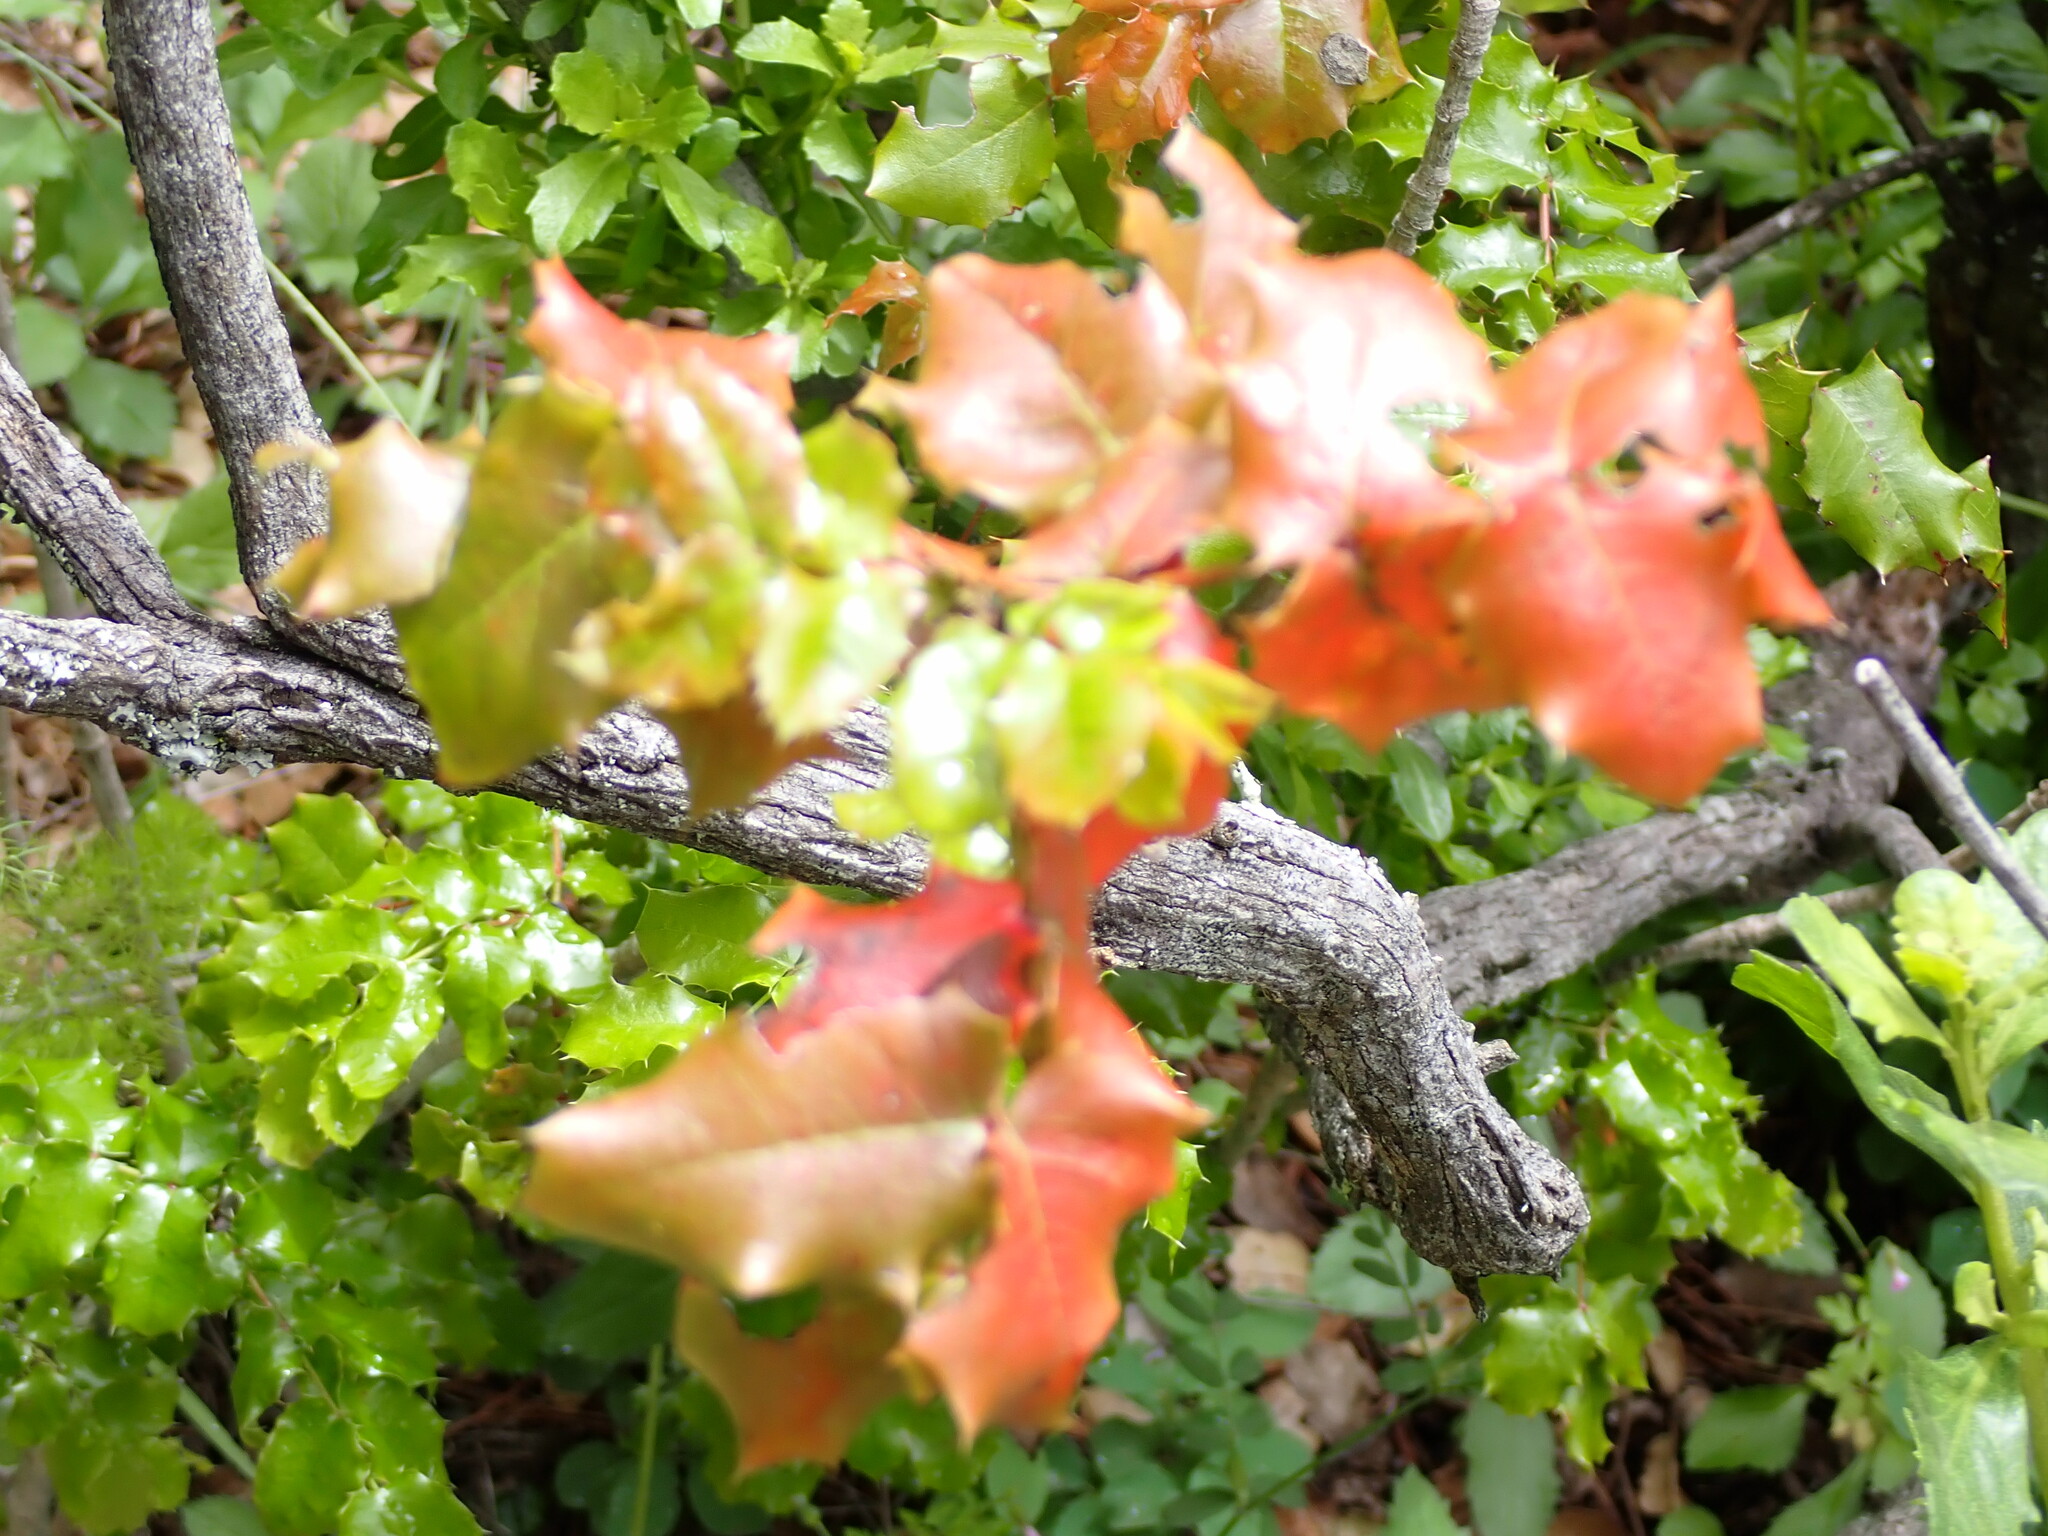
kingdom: Plantae
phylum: Tracheophyta
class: Magnoliopsida
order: Ranunculales
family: Berberidaceae
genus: Mahonia
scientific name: Mahonia
